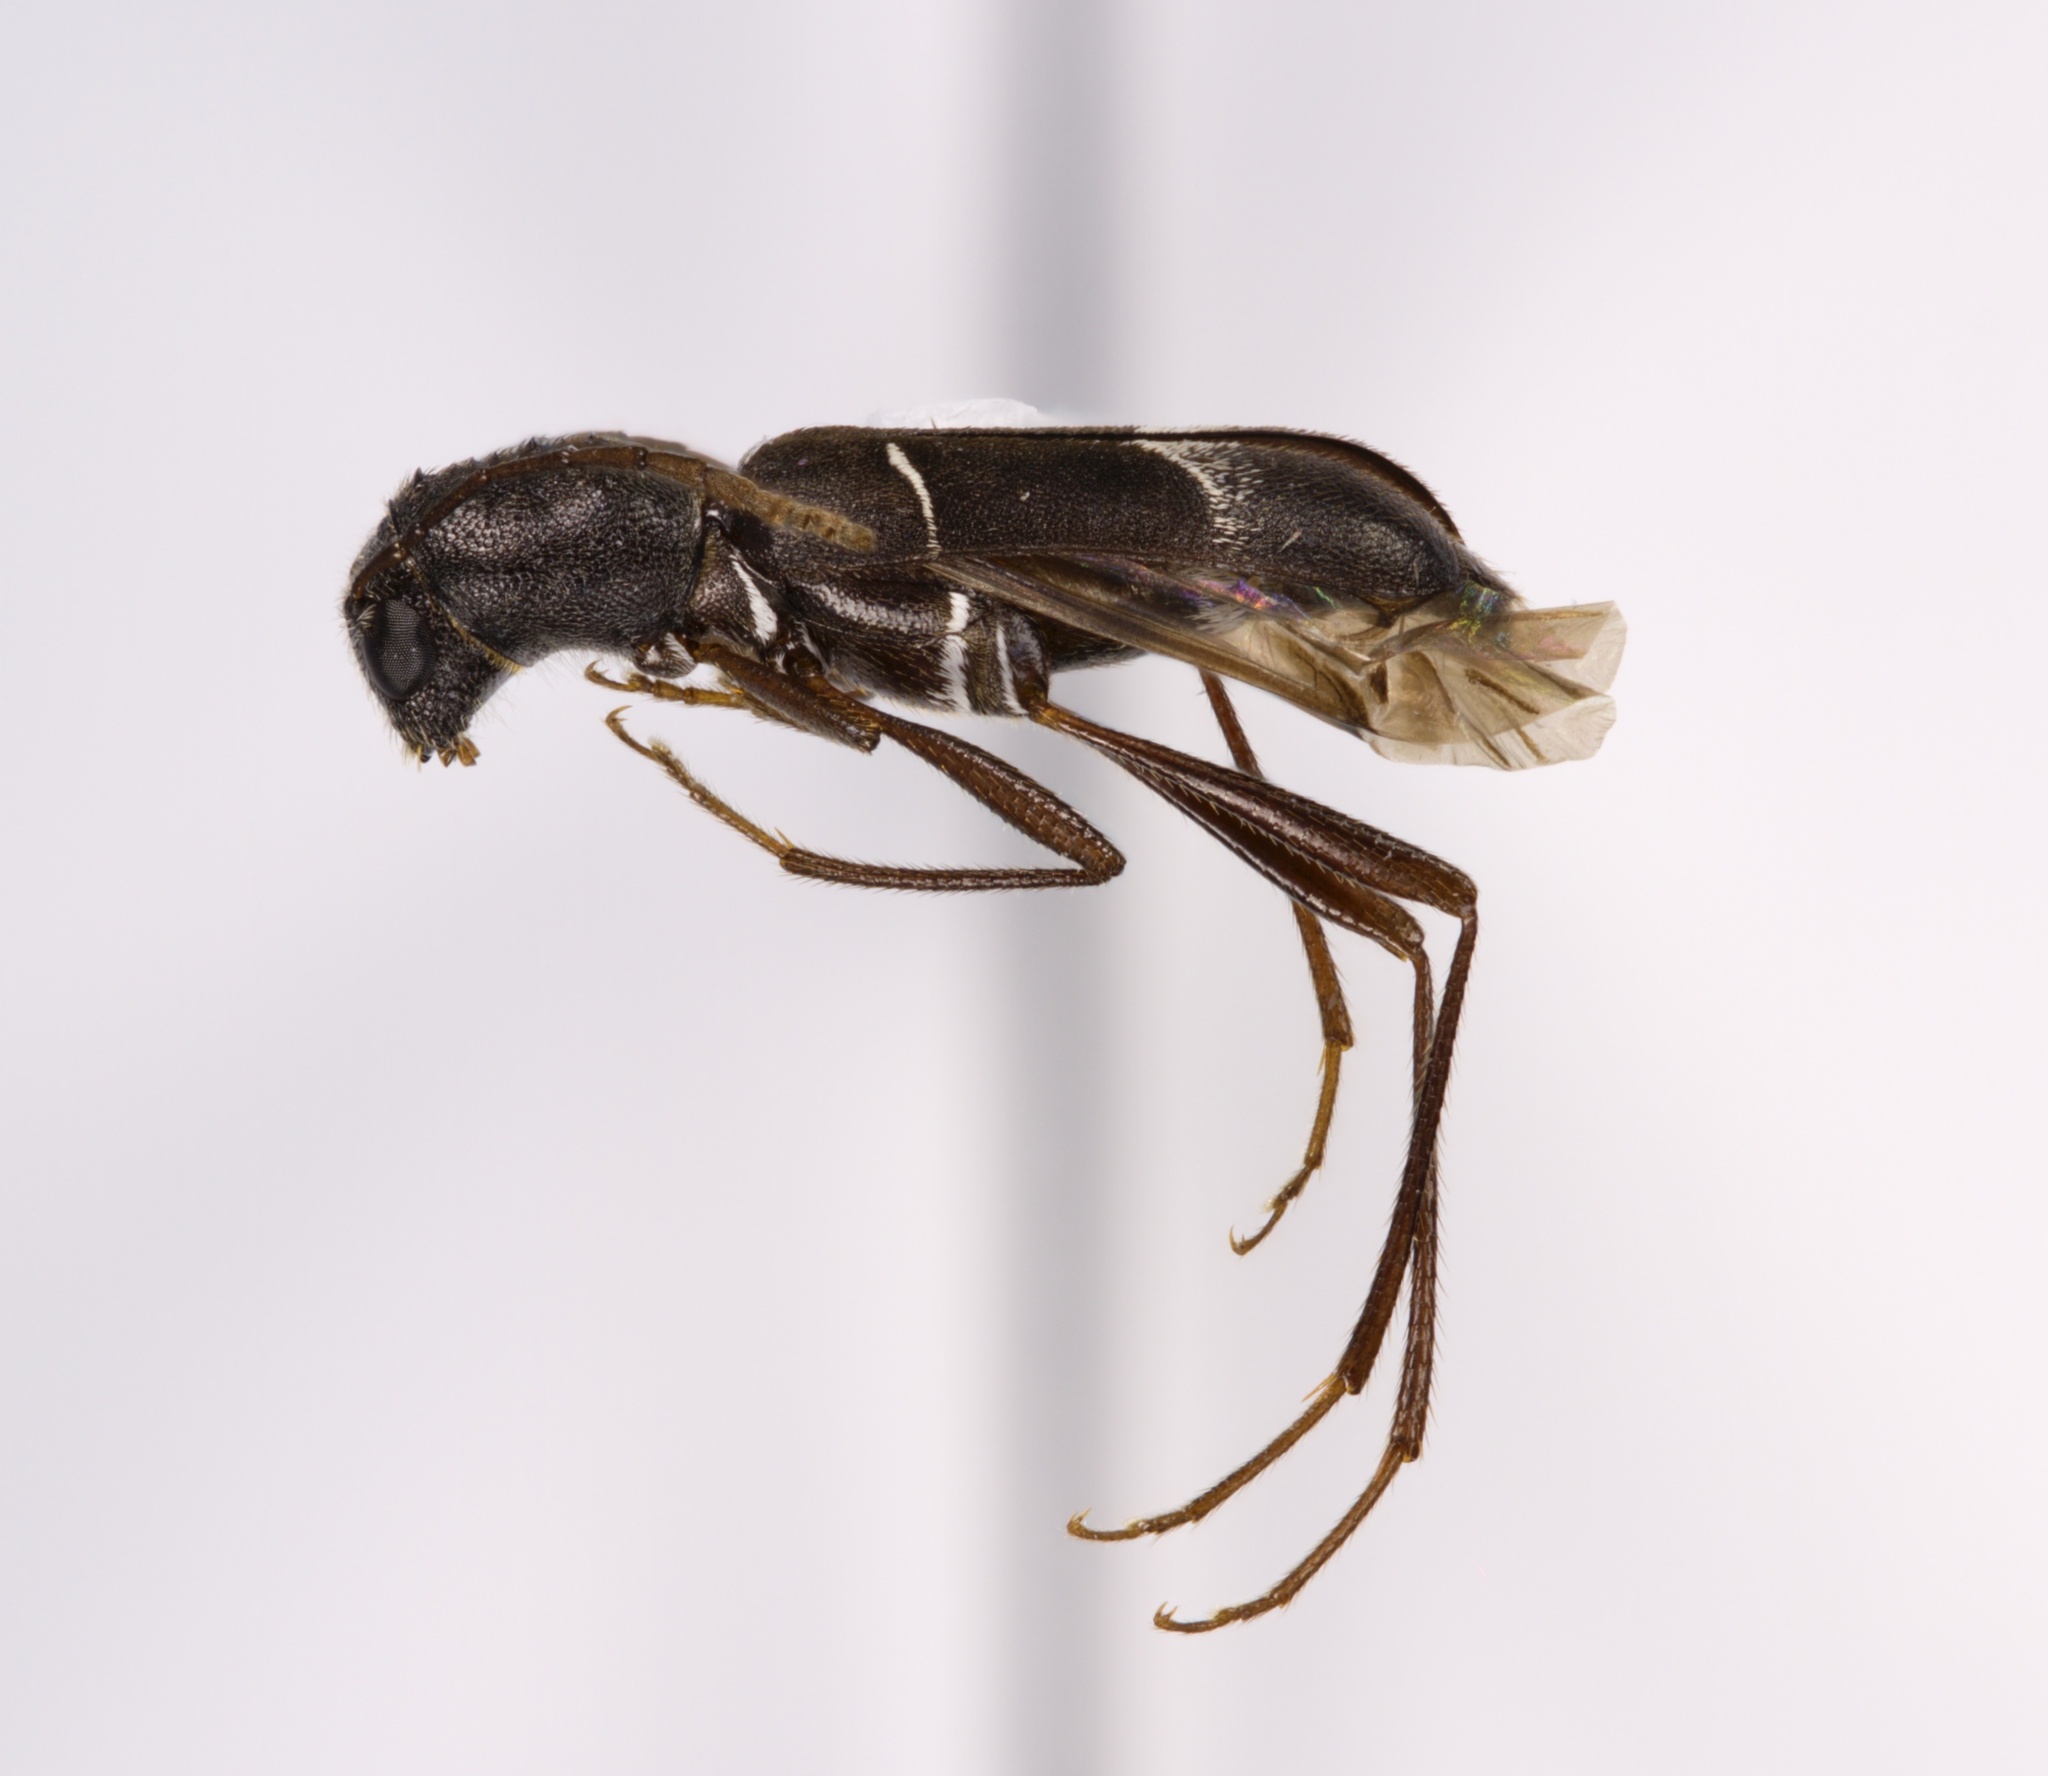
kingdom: Animalia
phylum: Arthropoda
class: Insecta
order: Coleoptera
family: Cerambycidae
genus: Neoclytus
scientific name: Neoclytus jouteli
